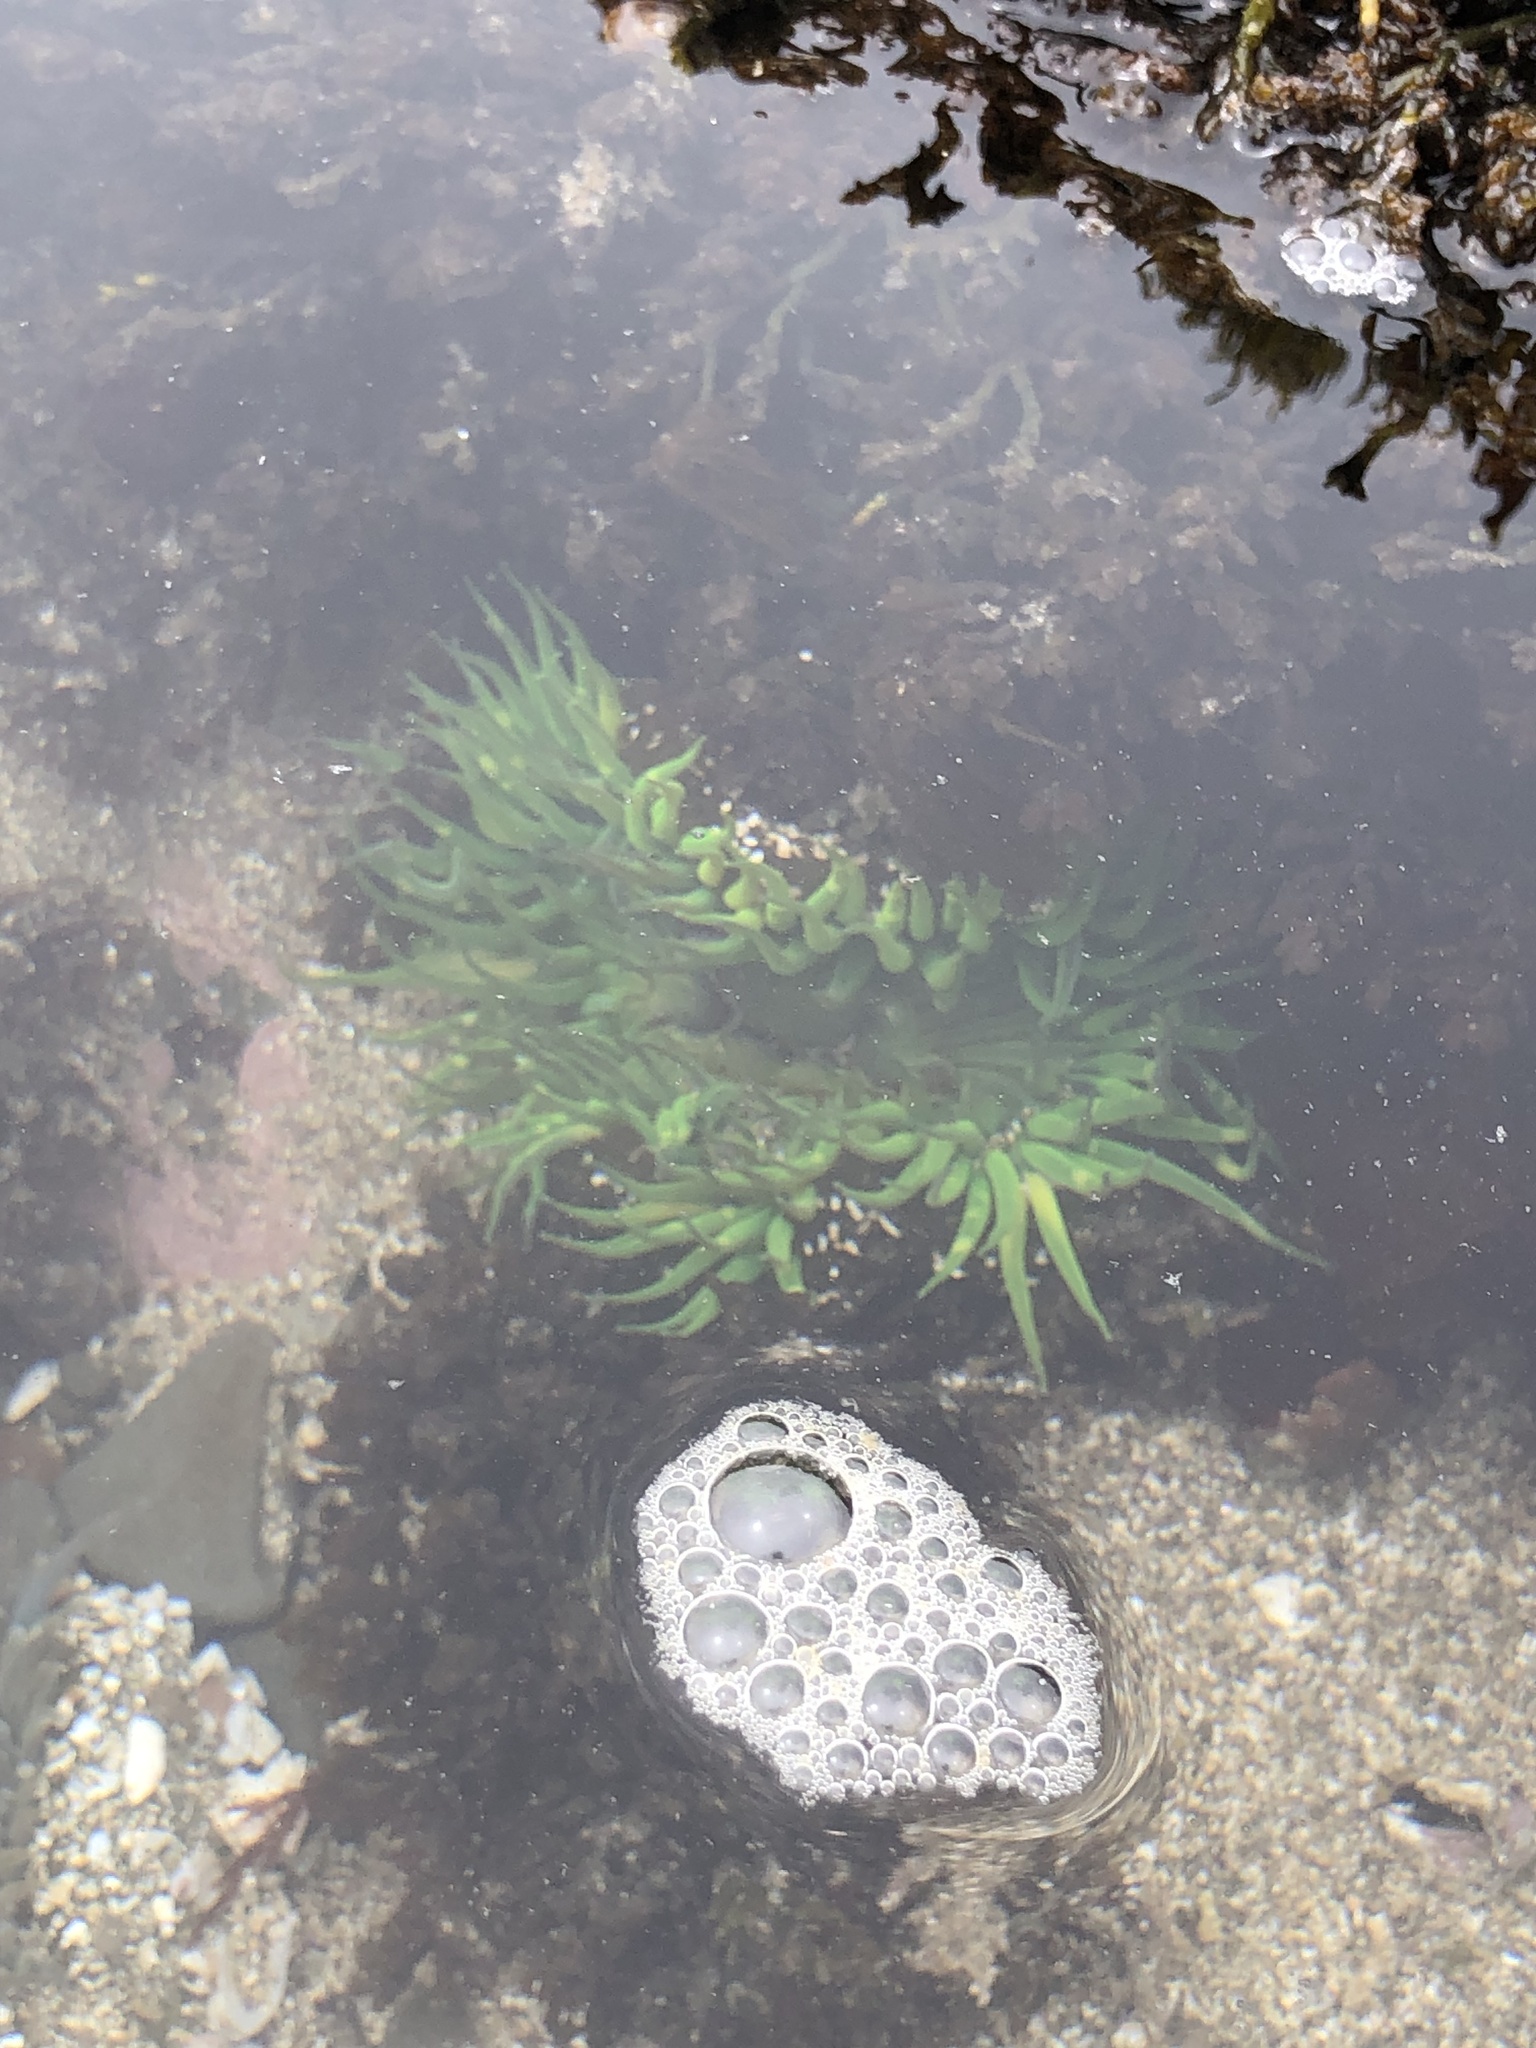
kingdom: Animalia
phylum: Cnidaria
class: Anthozoa
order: Actiniaria
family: Actiniidae
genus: Anthopleura
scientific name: Anthopleura sola
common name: Sun anemone
